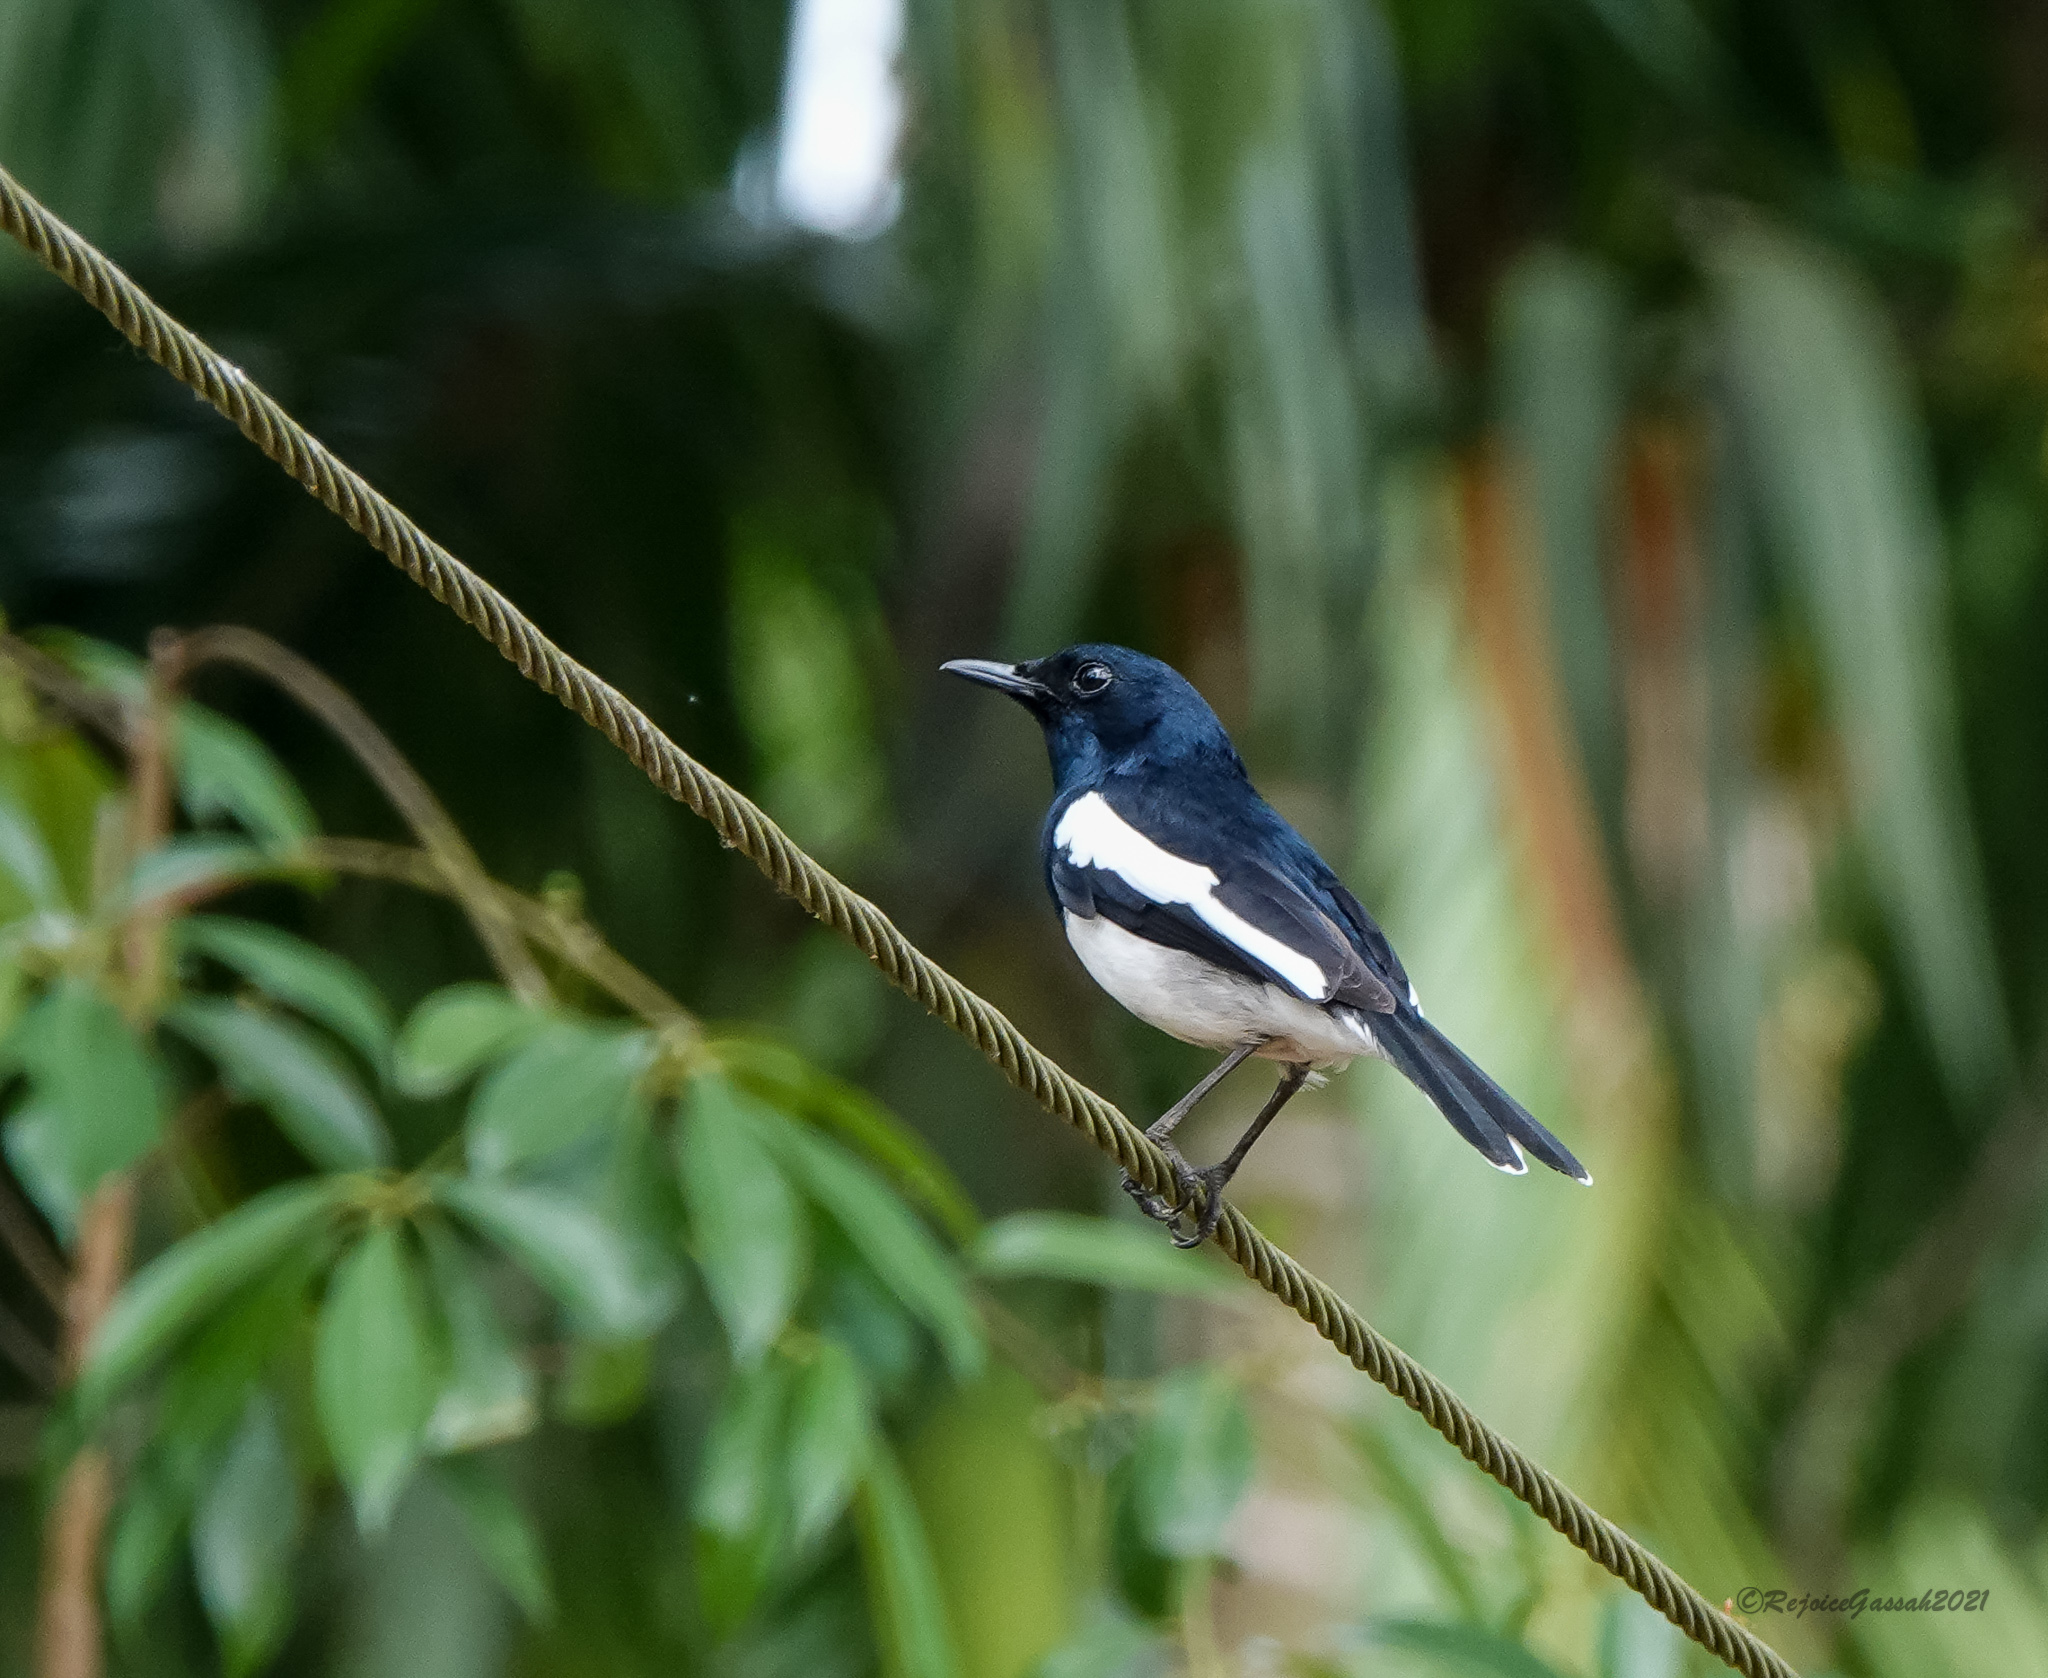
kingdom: Animalia
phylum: Chordata
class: Aves
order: Passeriformes
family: Muscicapidae
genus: Copsychus
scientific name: Copsychus saularis
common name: Oriental magpie-robin
